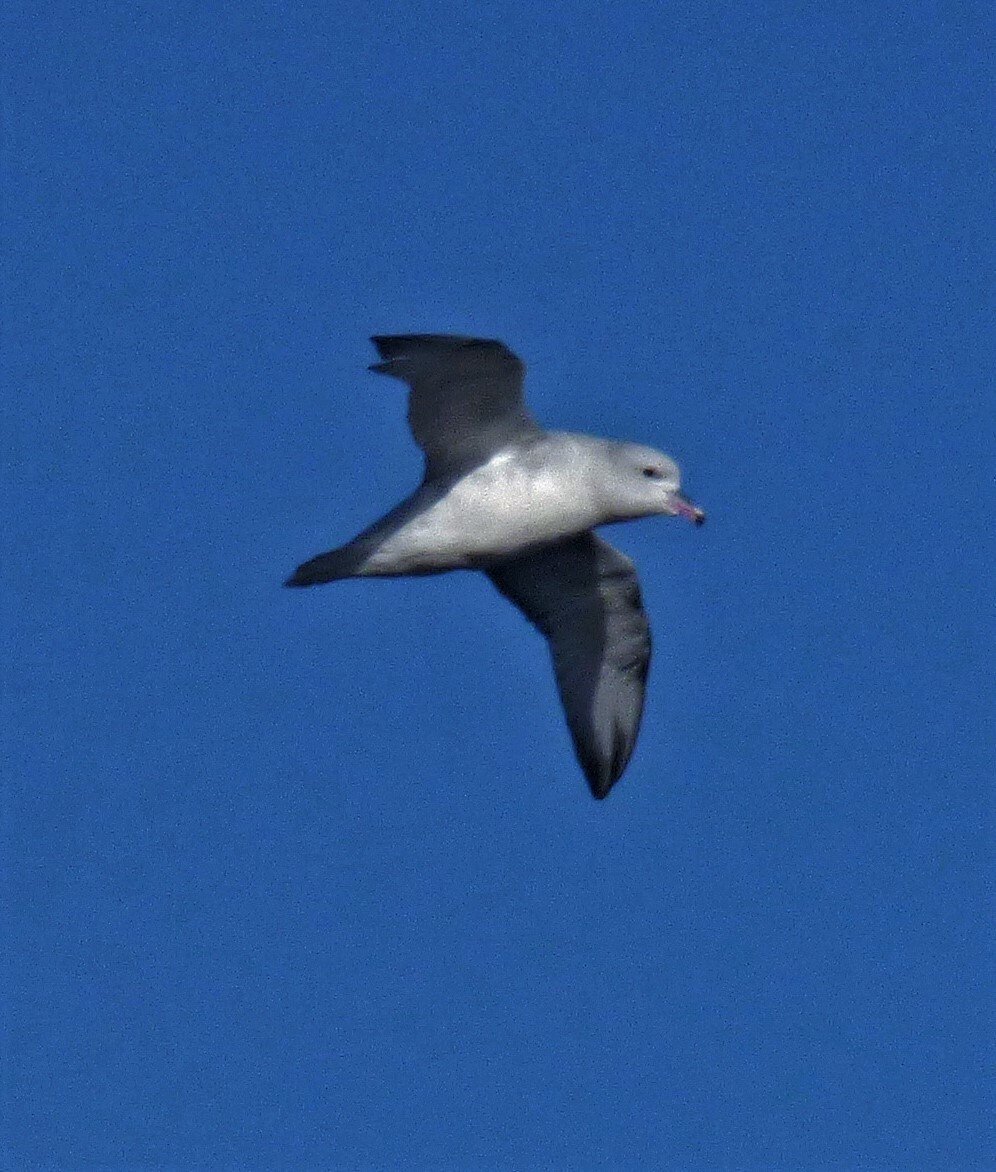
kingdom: Animalia
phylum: Chordata
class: Aves
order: Procellariiformes
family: Procellariidae
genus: Fulmarus
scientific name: Fulmarus glacialoides
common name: Southern fulmar
